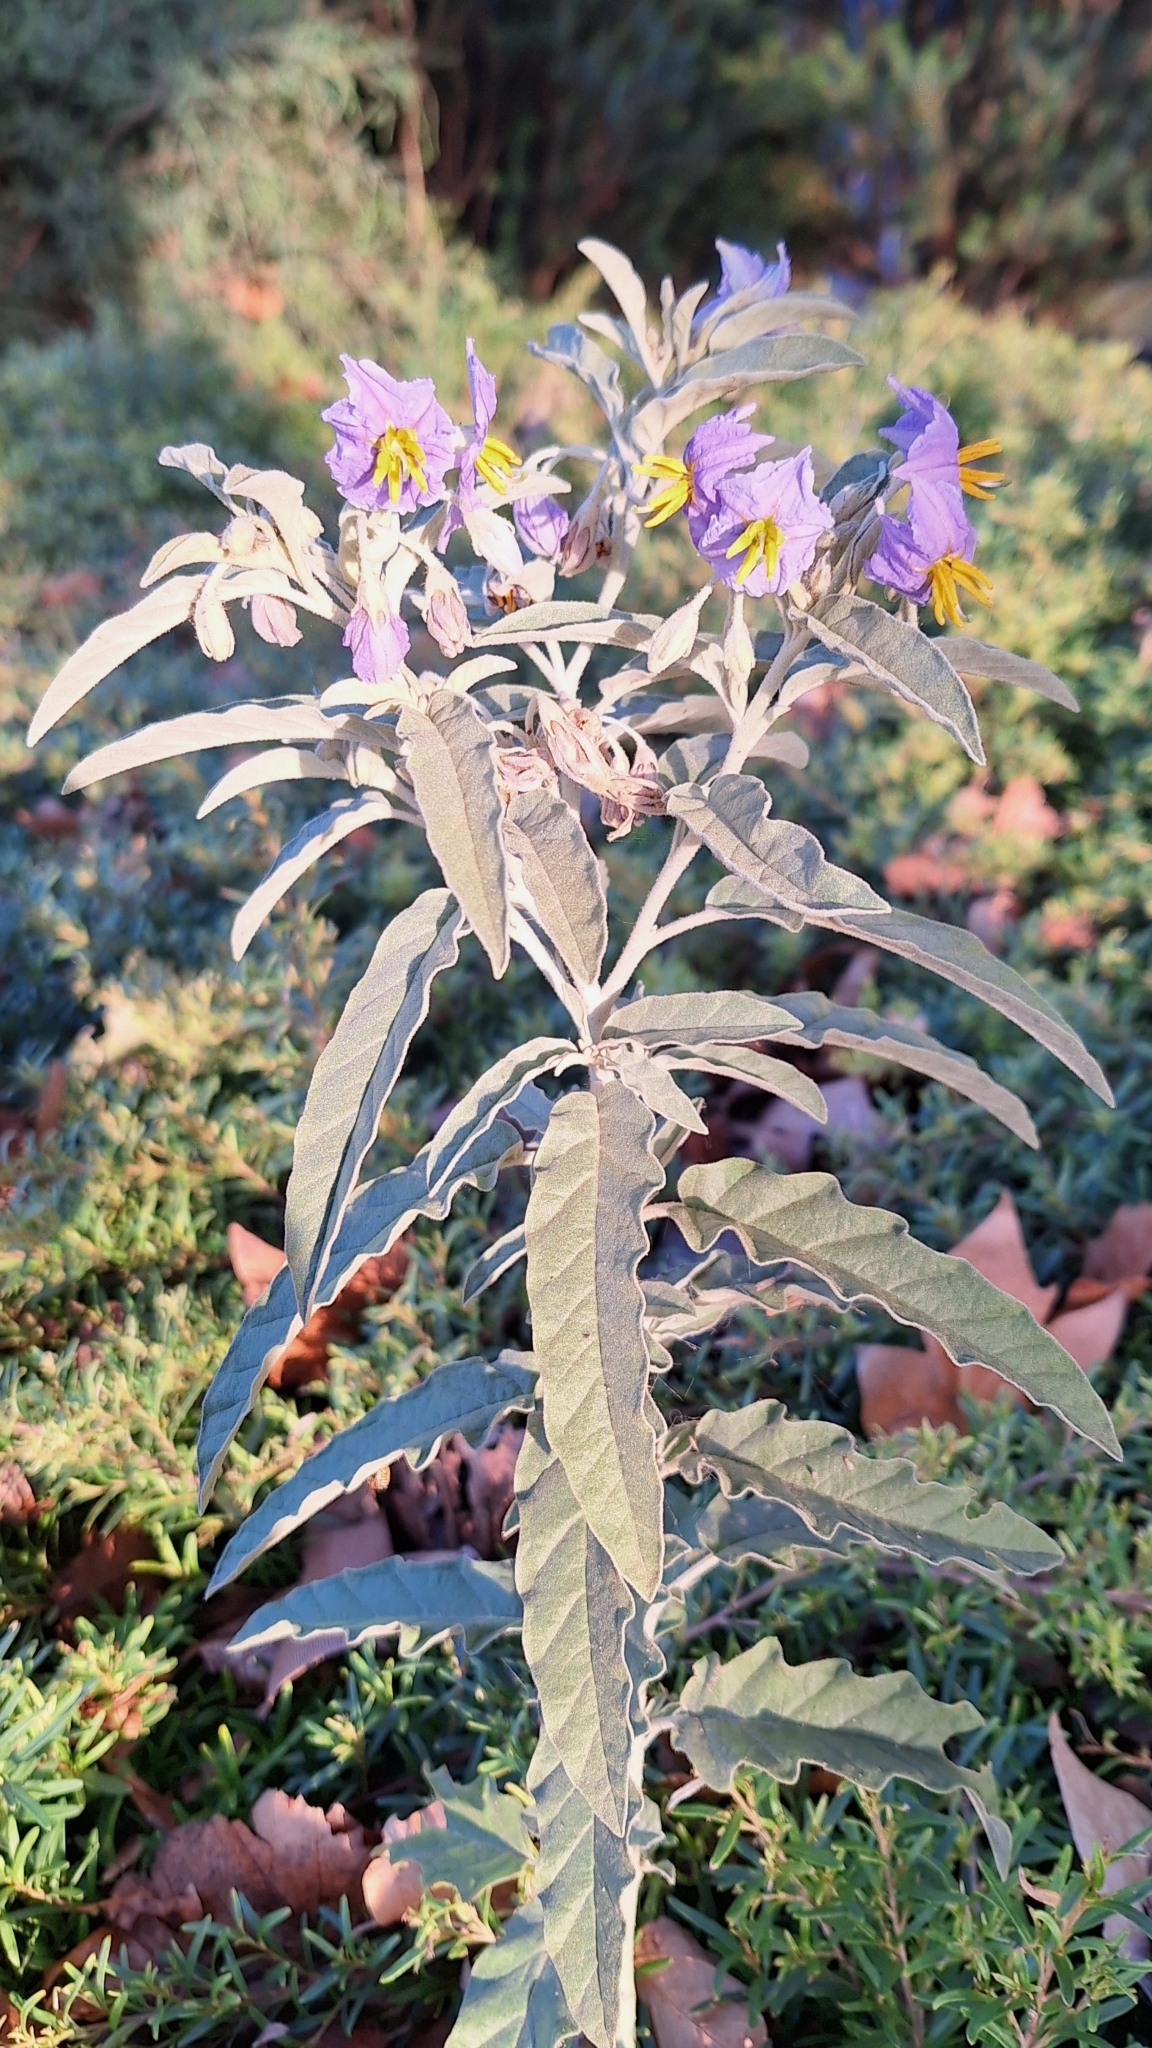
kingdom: Plantae
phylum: Tracheophyta
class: Magnoliopsida
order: Solanales
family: Solanaceae
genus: Solanum
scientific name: Solanum elaeagnifolium
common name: Silverleaf nightshade
